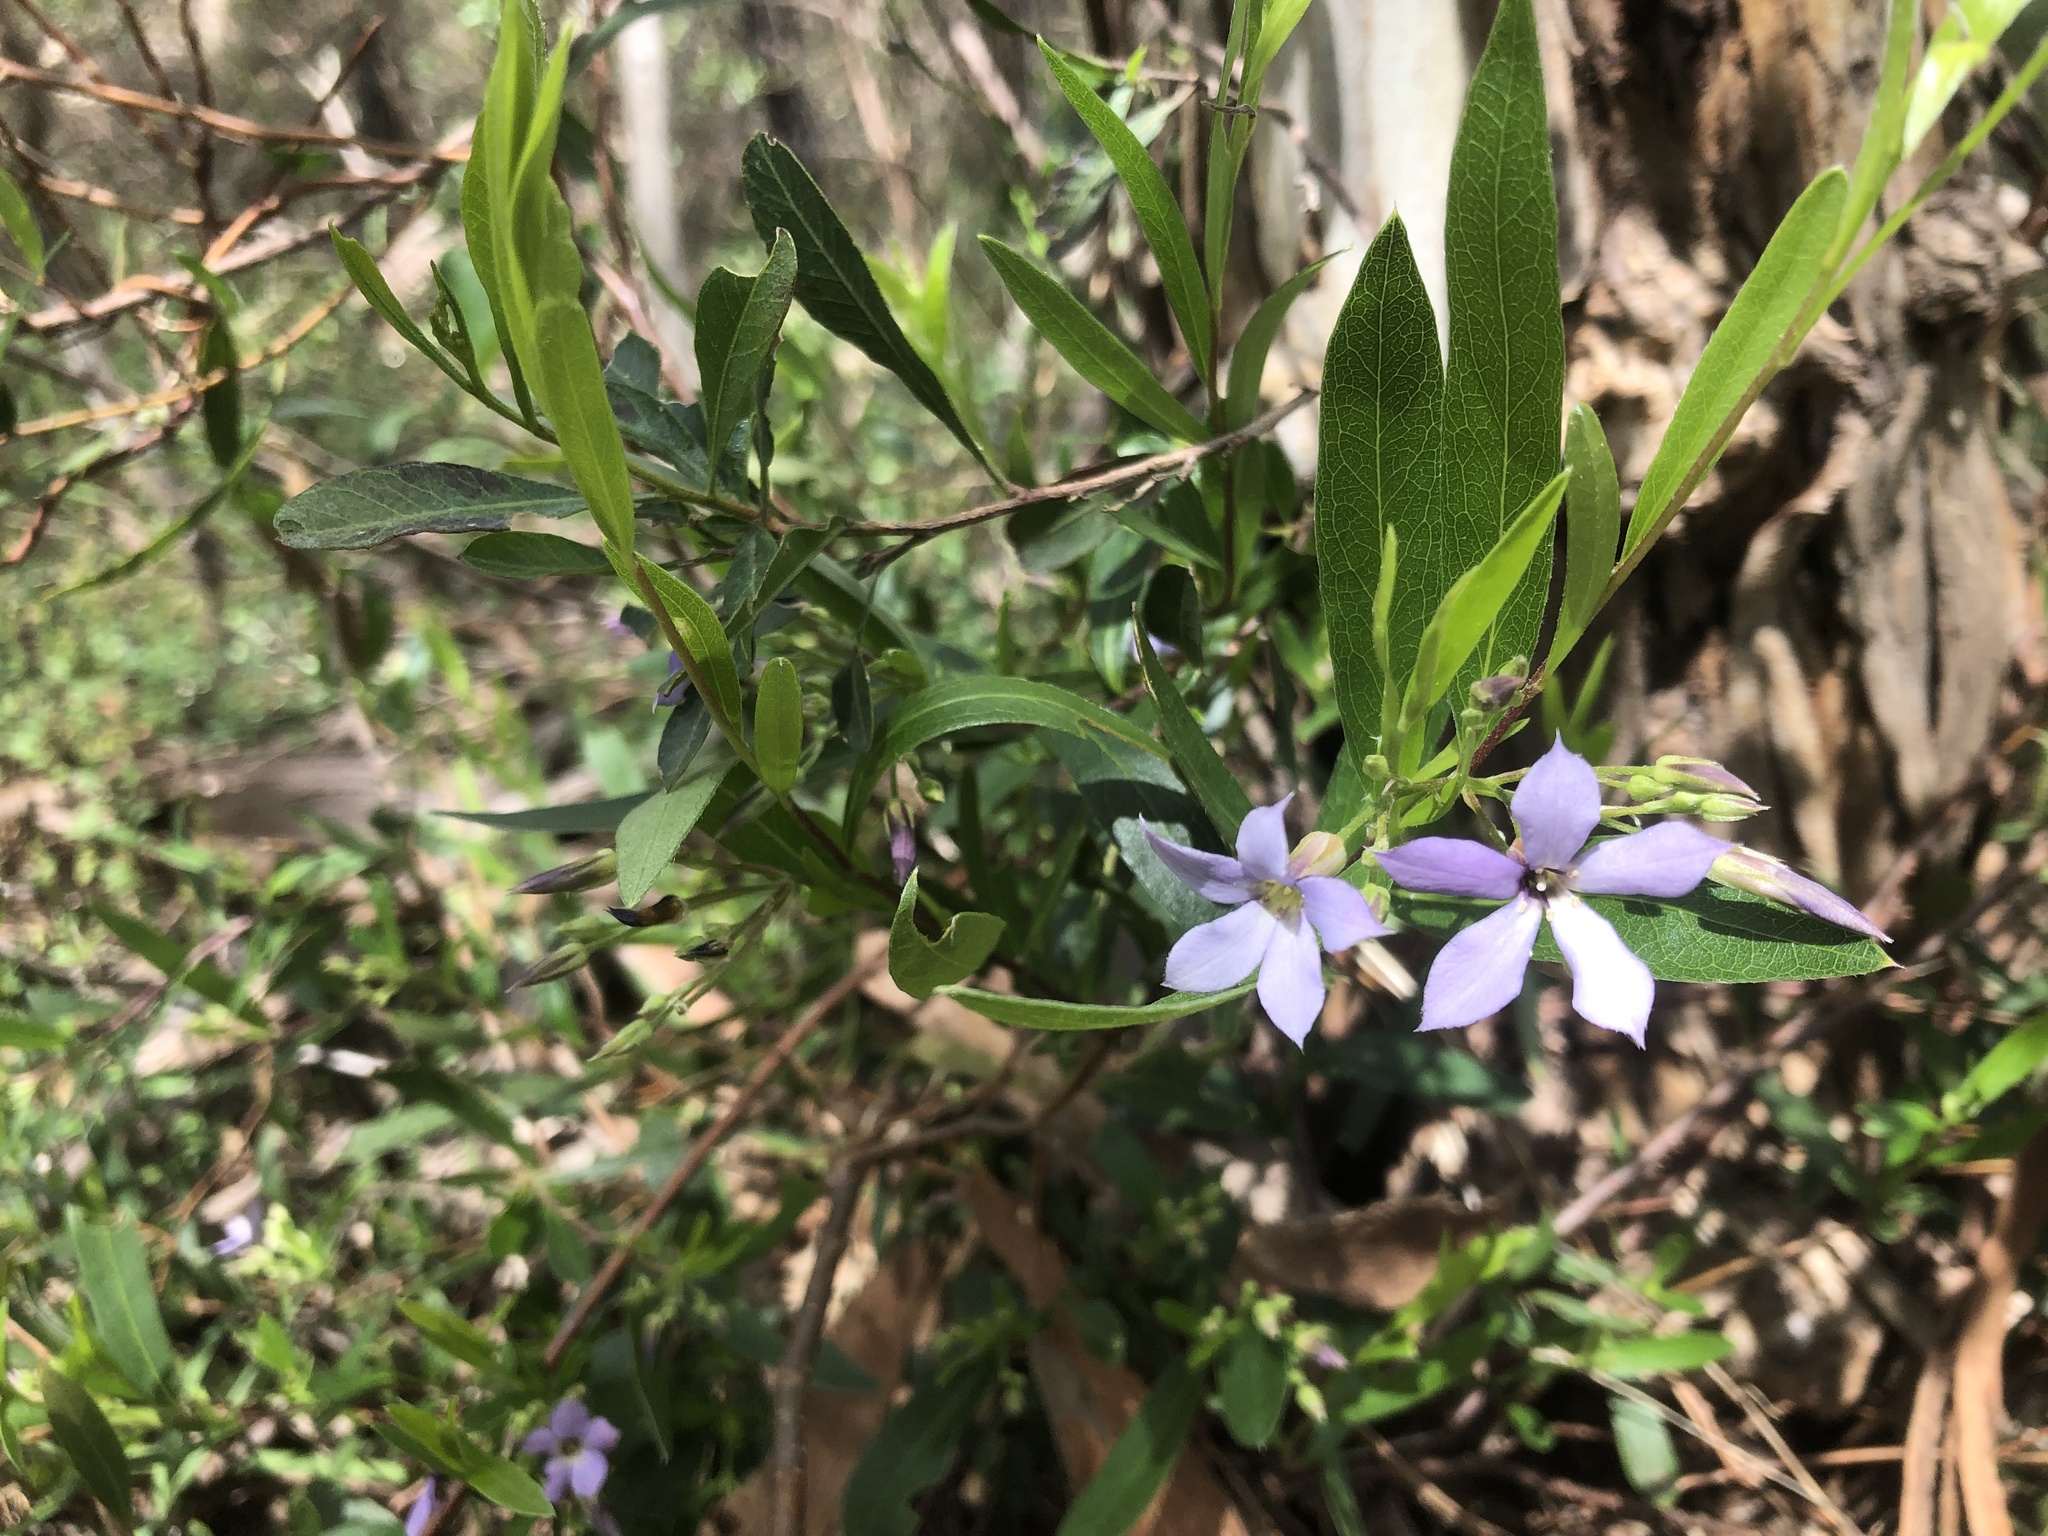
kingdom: Plantae
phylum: Tracheophyta
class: Magnoliopsida
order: Apiales
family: Pittosporaceae
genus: Billardiera
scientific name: Billardiera cymosa
